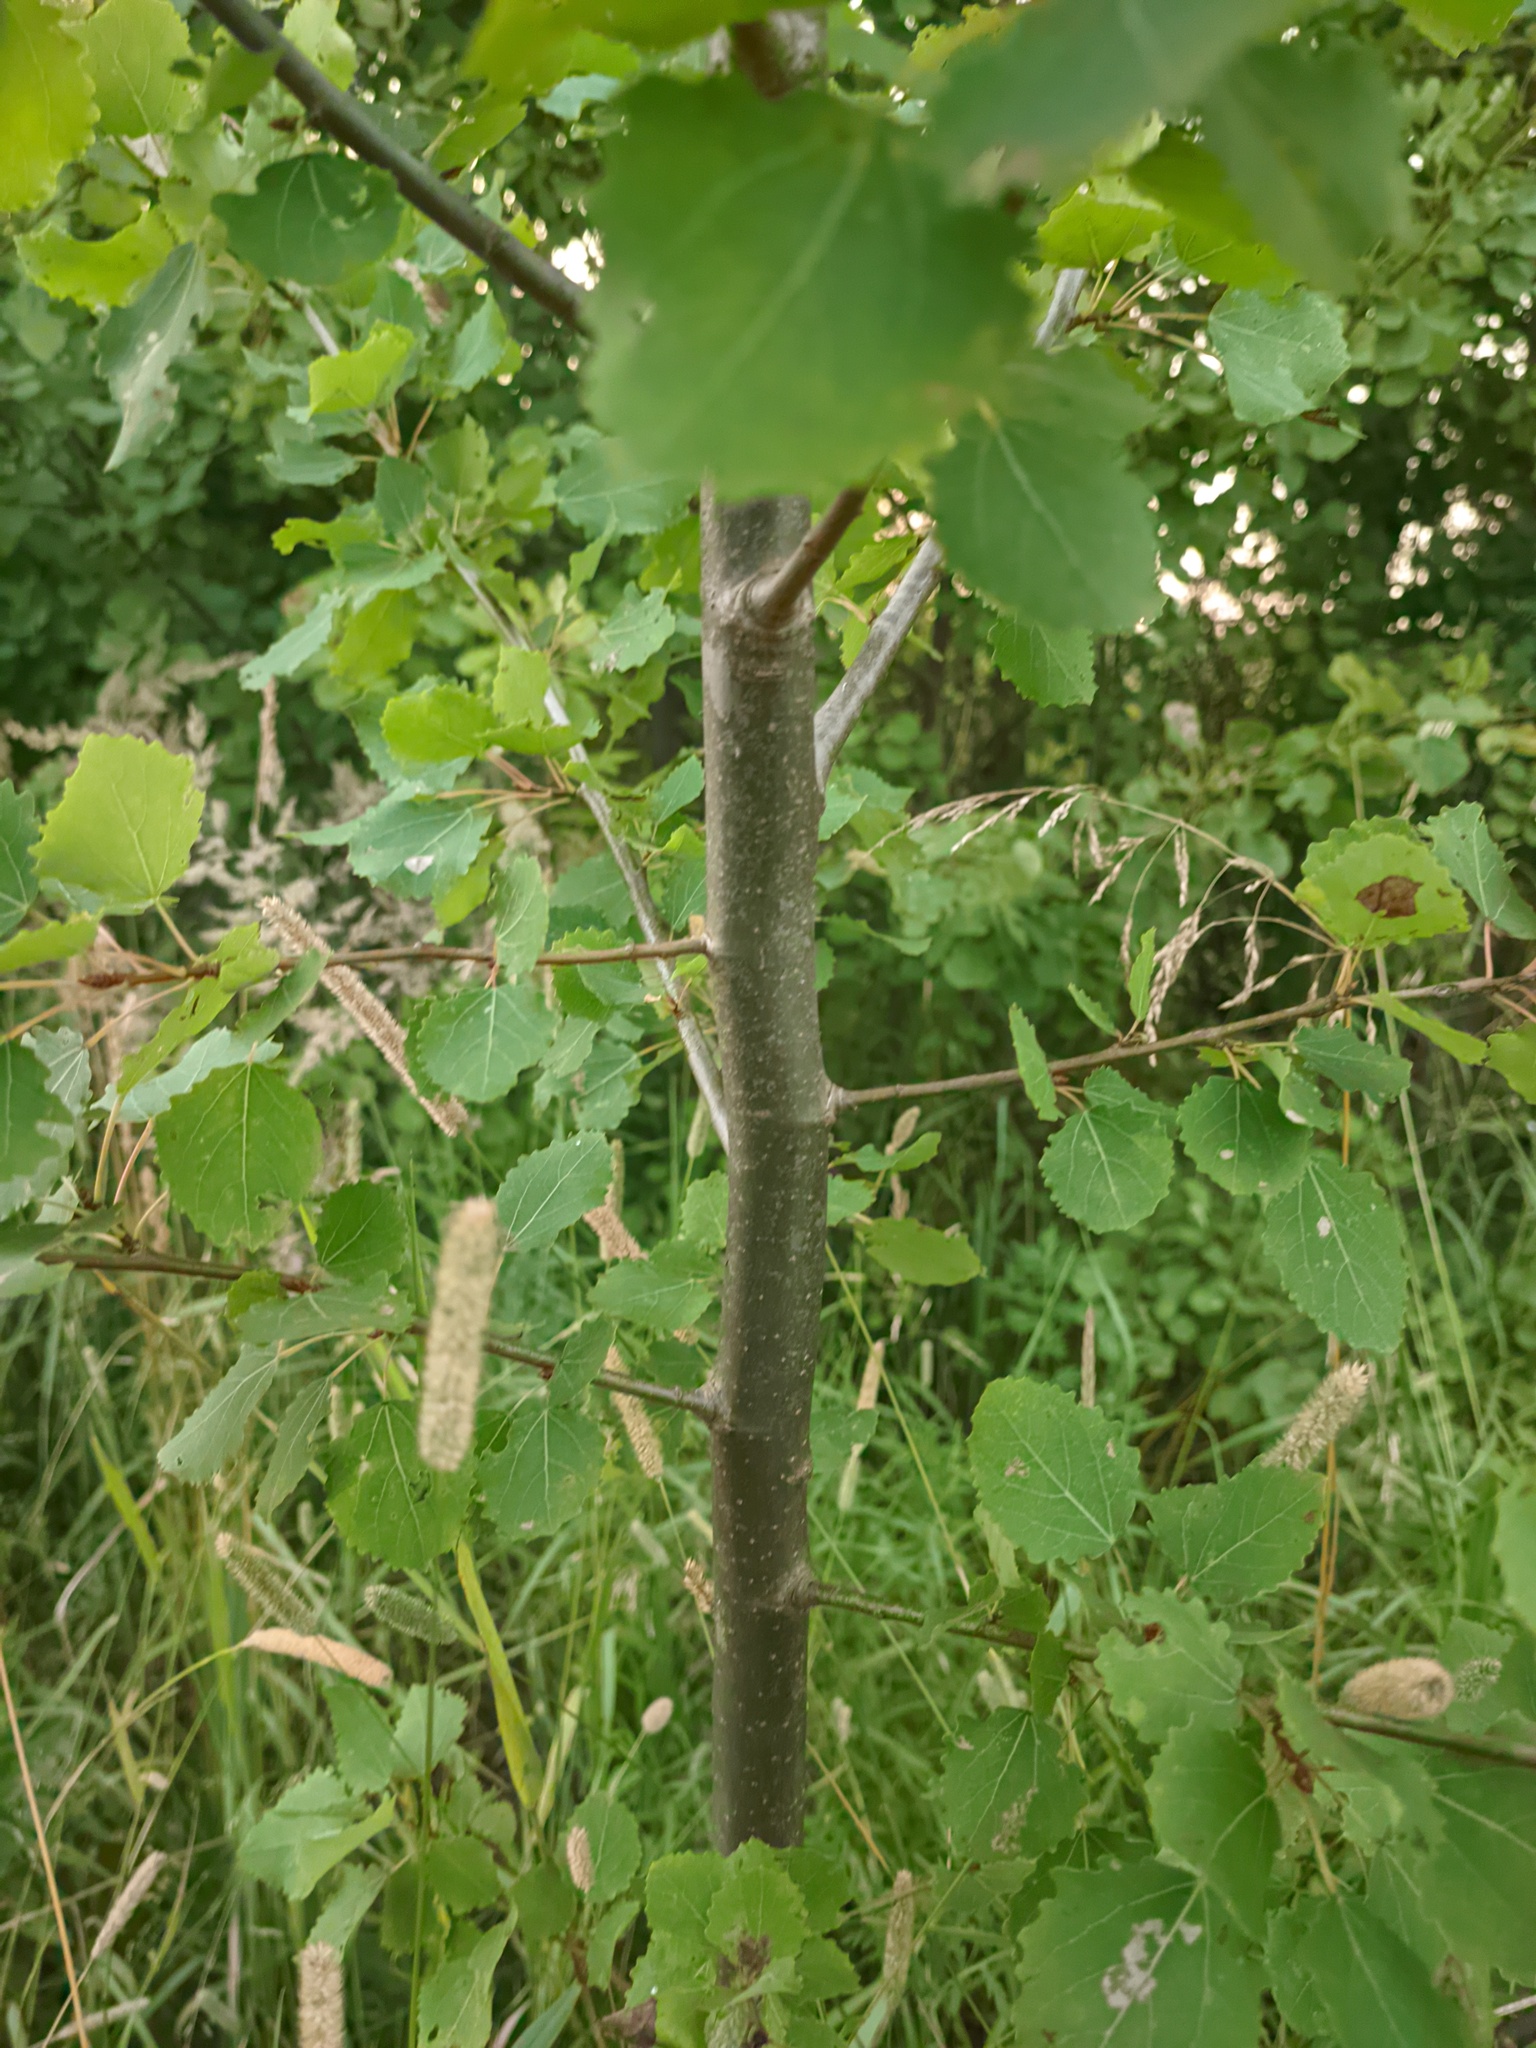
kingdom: Plantae
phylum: Tracheophyta
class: Magnoliopsida
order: Malpighiales
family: Salicaceae
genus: Populus
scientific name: Populus tremula
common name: European aspen
